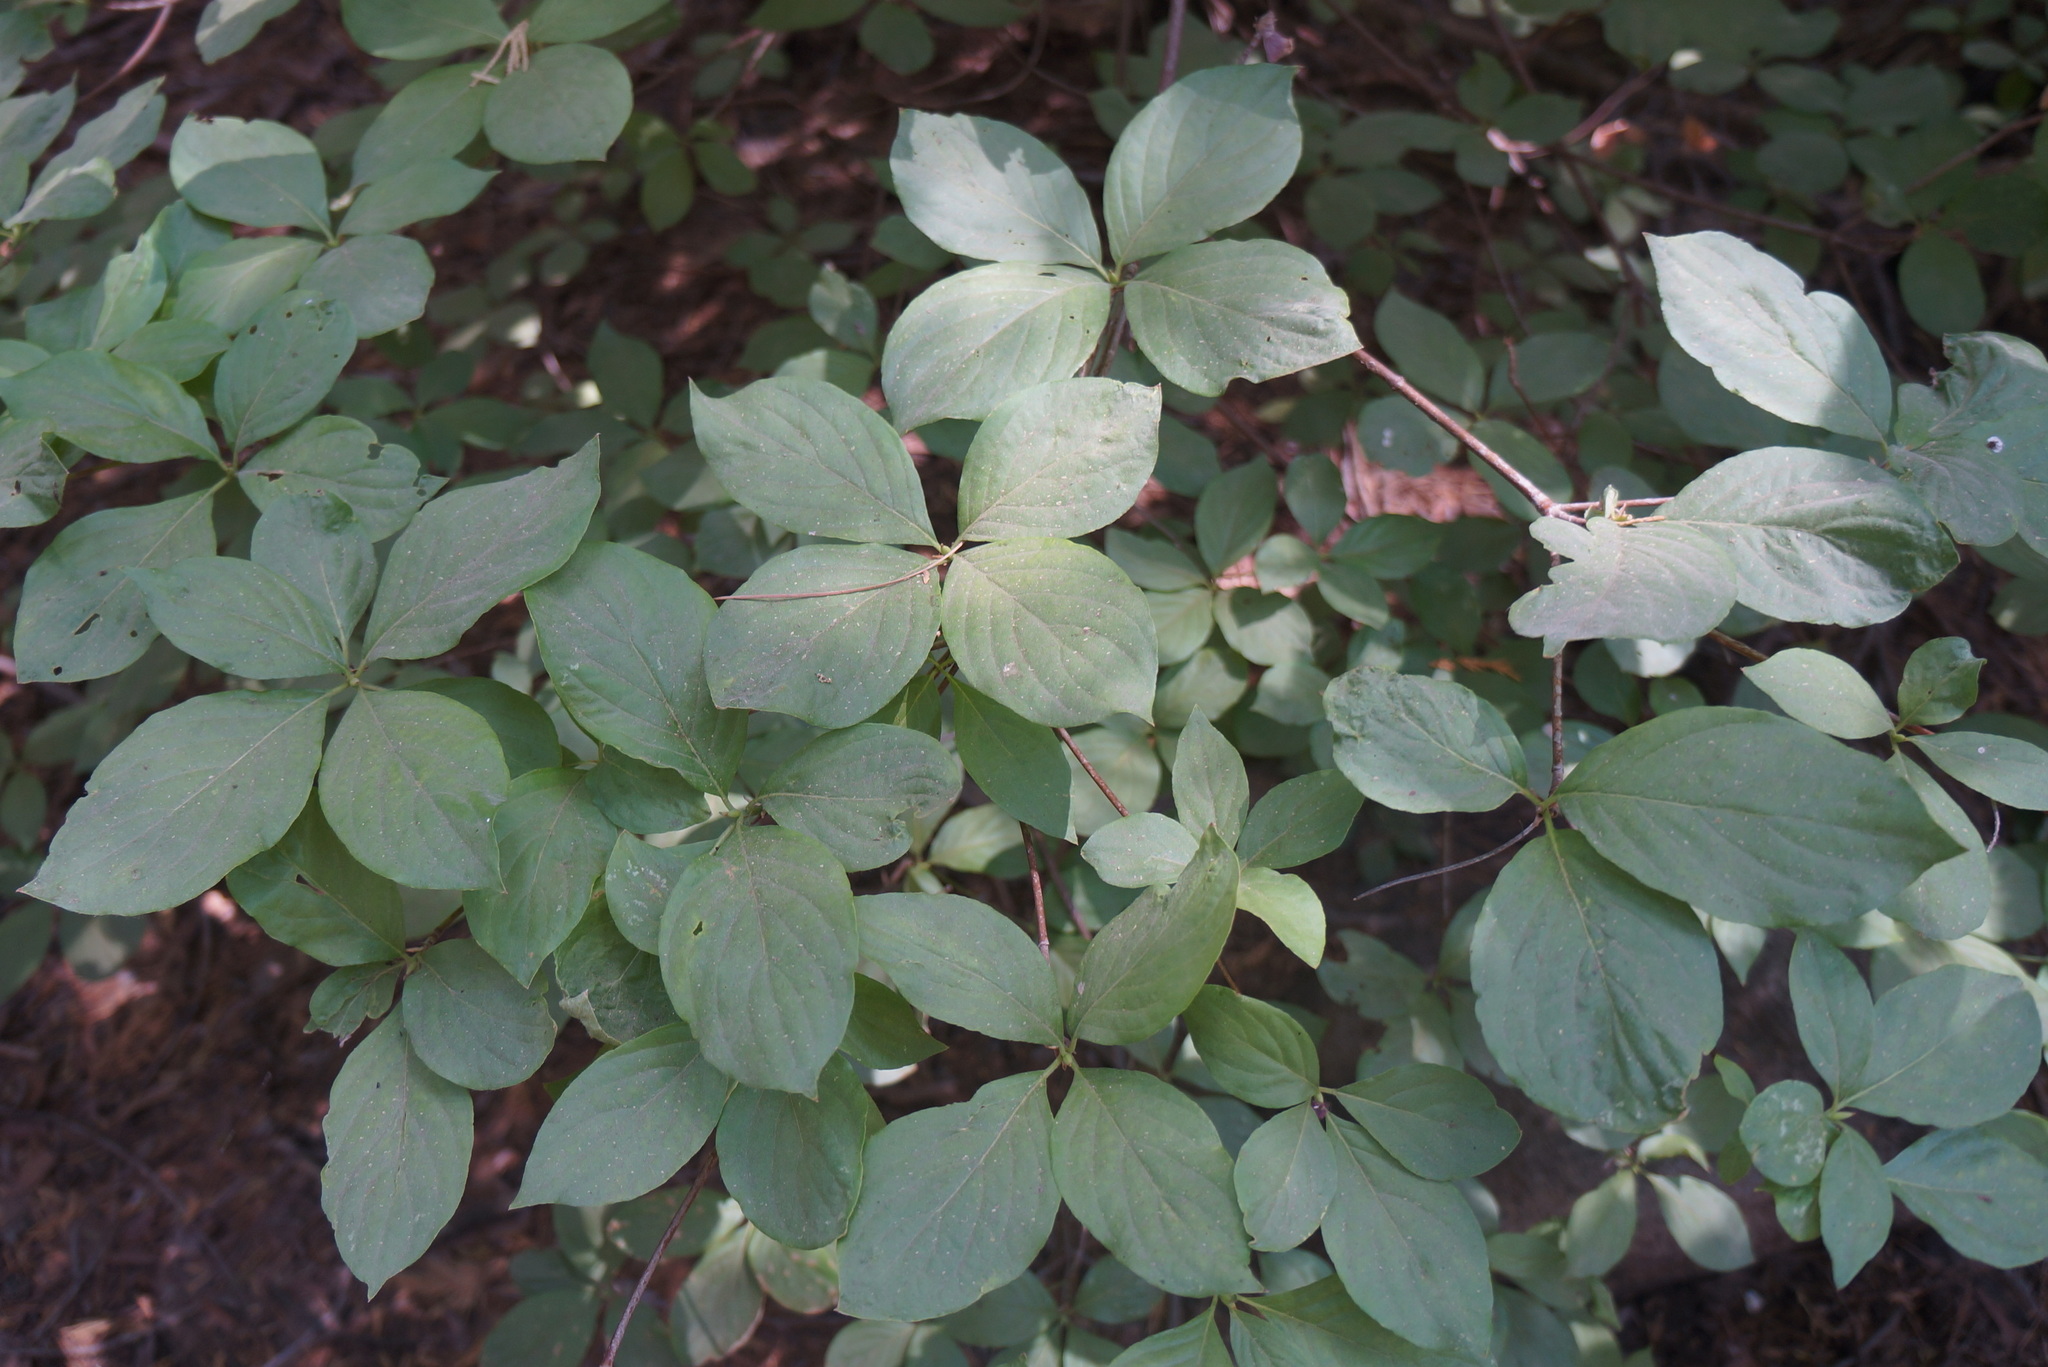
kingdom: Plantae
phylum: Tracheophyta
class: Magnoliopsida
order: Cornales
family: Cornaceae
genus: Cornus
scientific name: Cornus nuttallii
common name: Pacific dogwood
